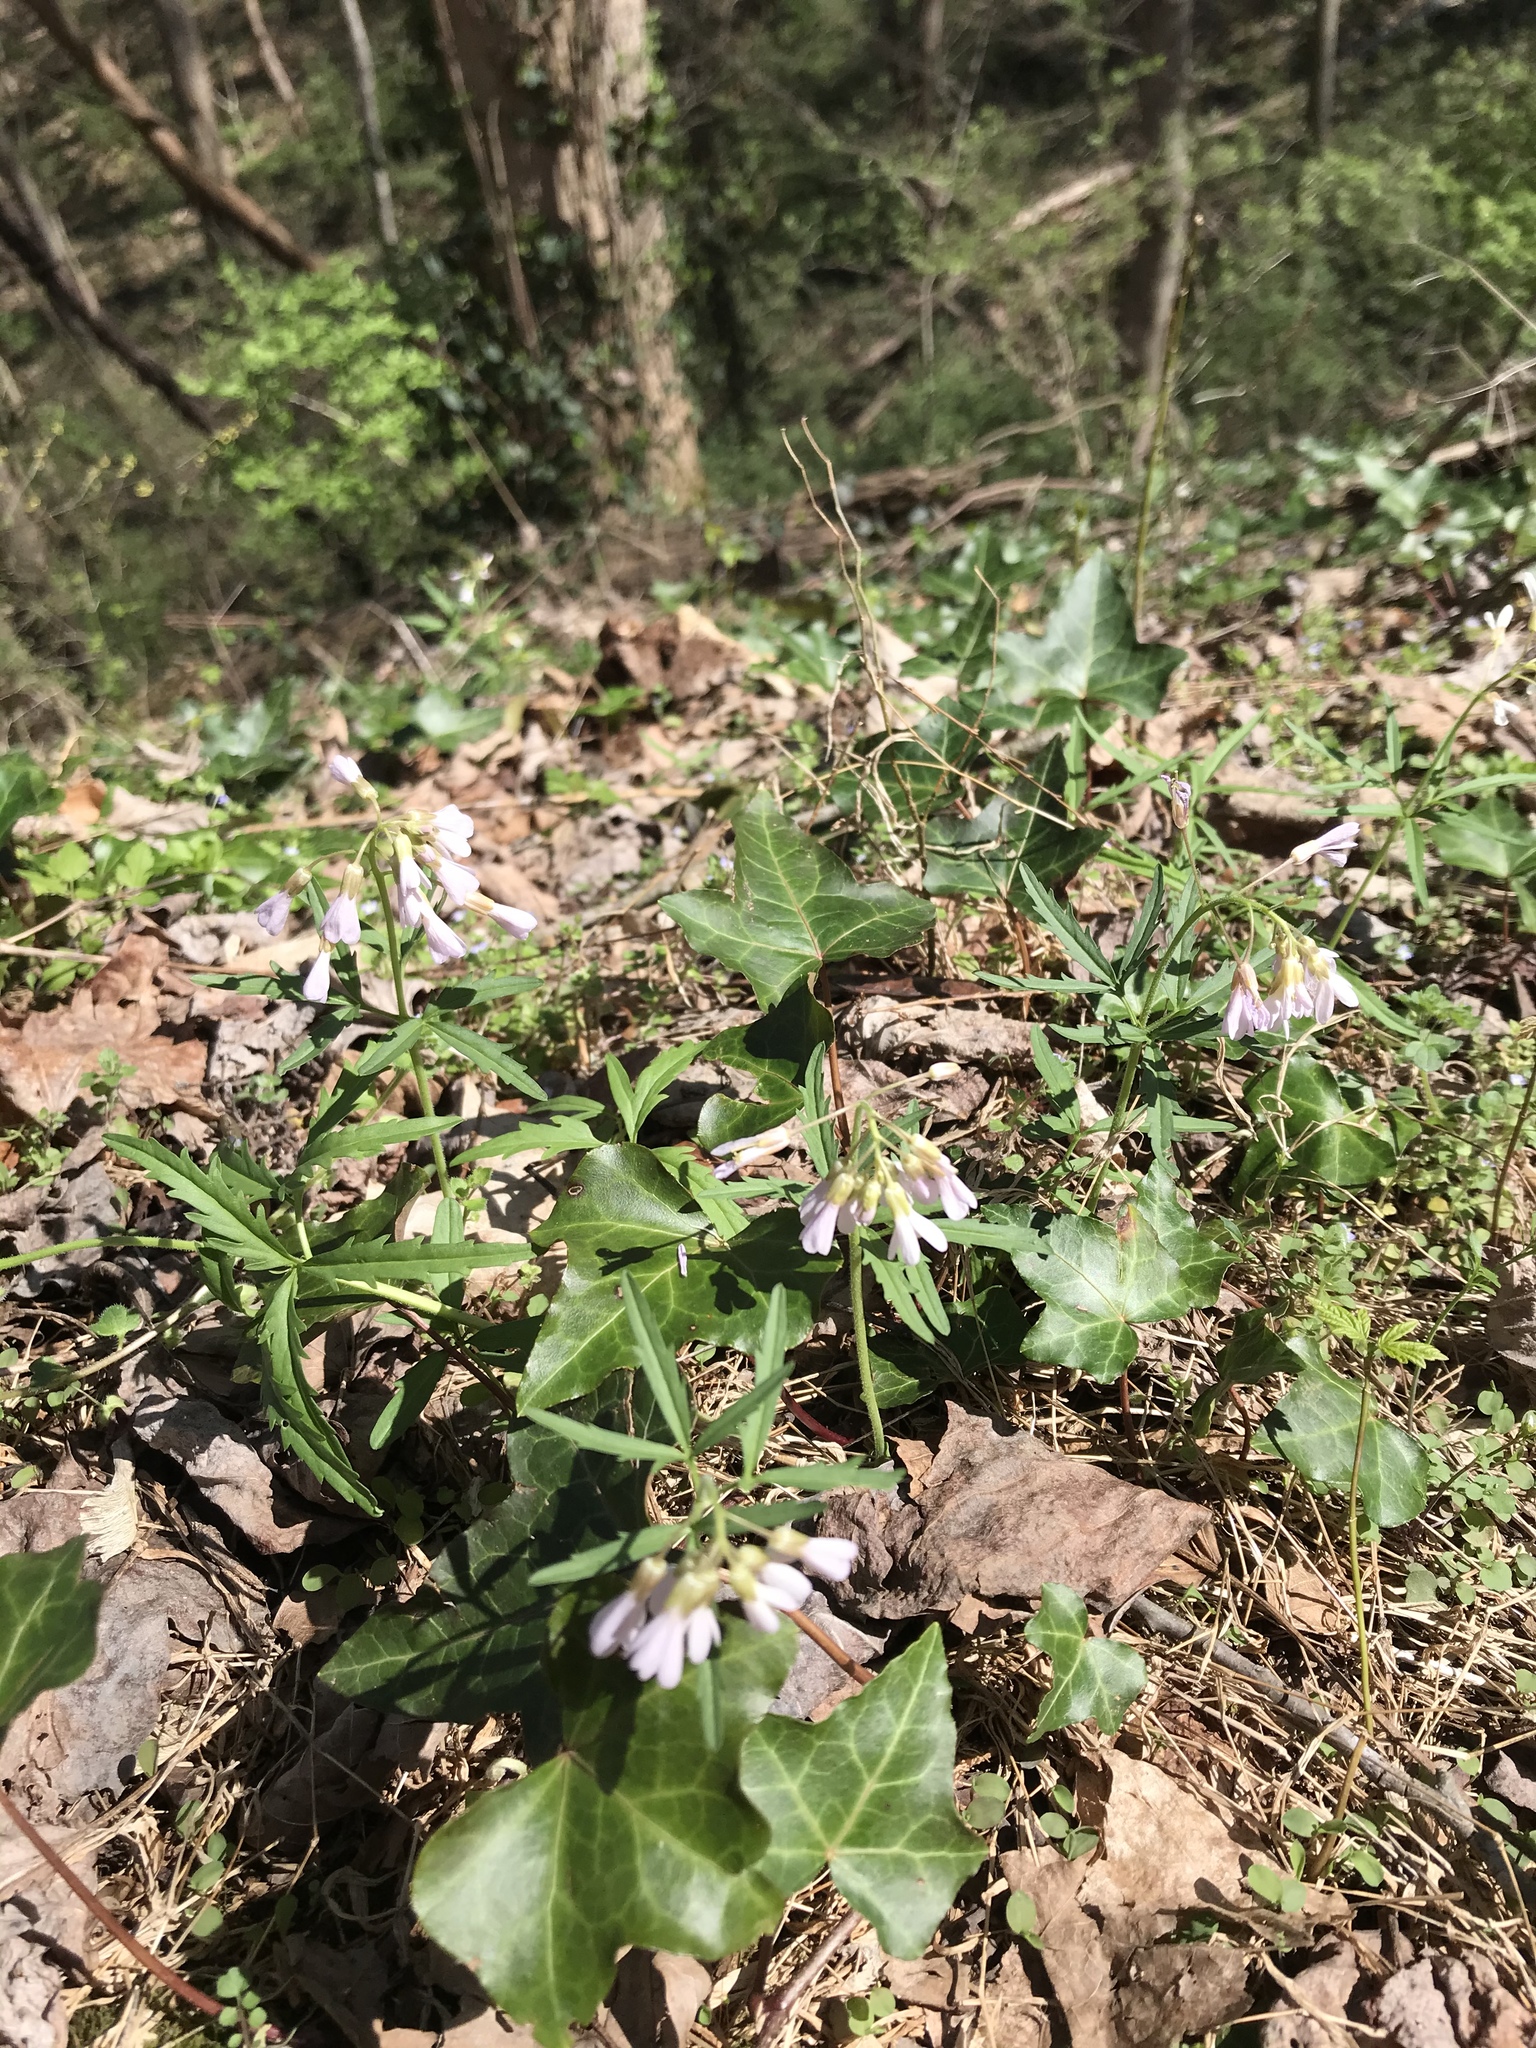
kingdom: Plantae
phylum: Tracheophyta
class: Magnoliopsida
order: Brassicales
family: Brassicaceae
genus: Cardamine
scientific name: Cardamine concatenata
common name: Cut-leaf toothcup
